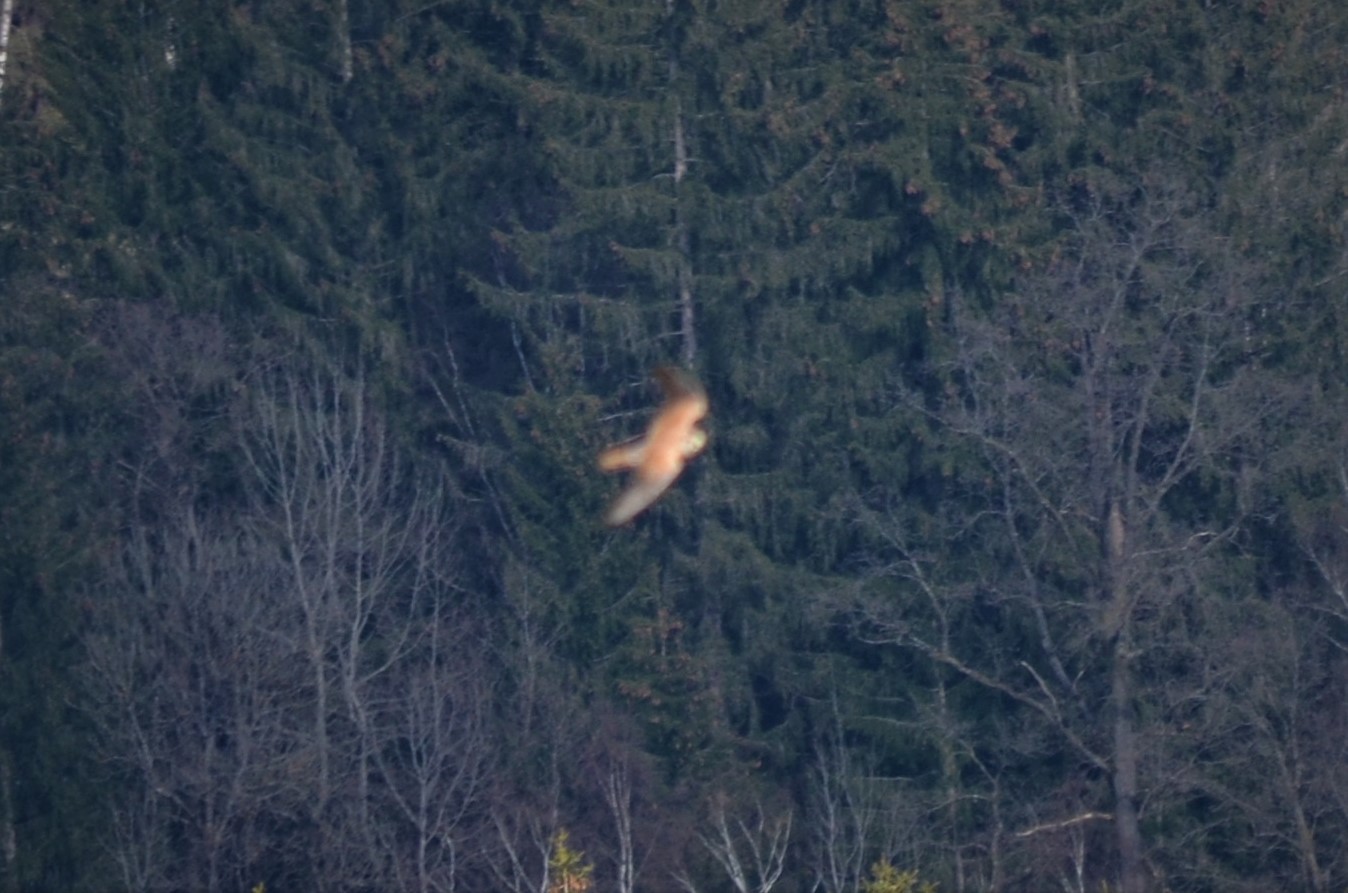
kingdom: Animalia
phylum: Chordata
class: Aves
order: Falconiformes
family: Falconidae
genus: Falco
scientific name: Falco tinnunculus
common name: Common kestrel
